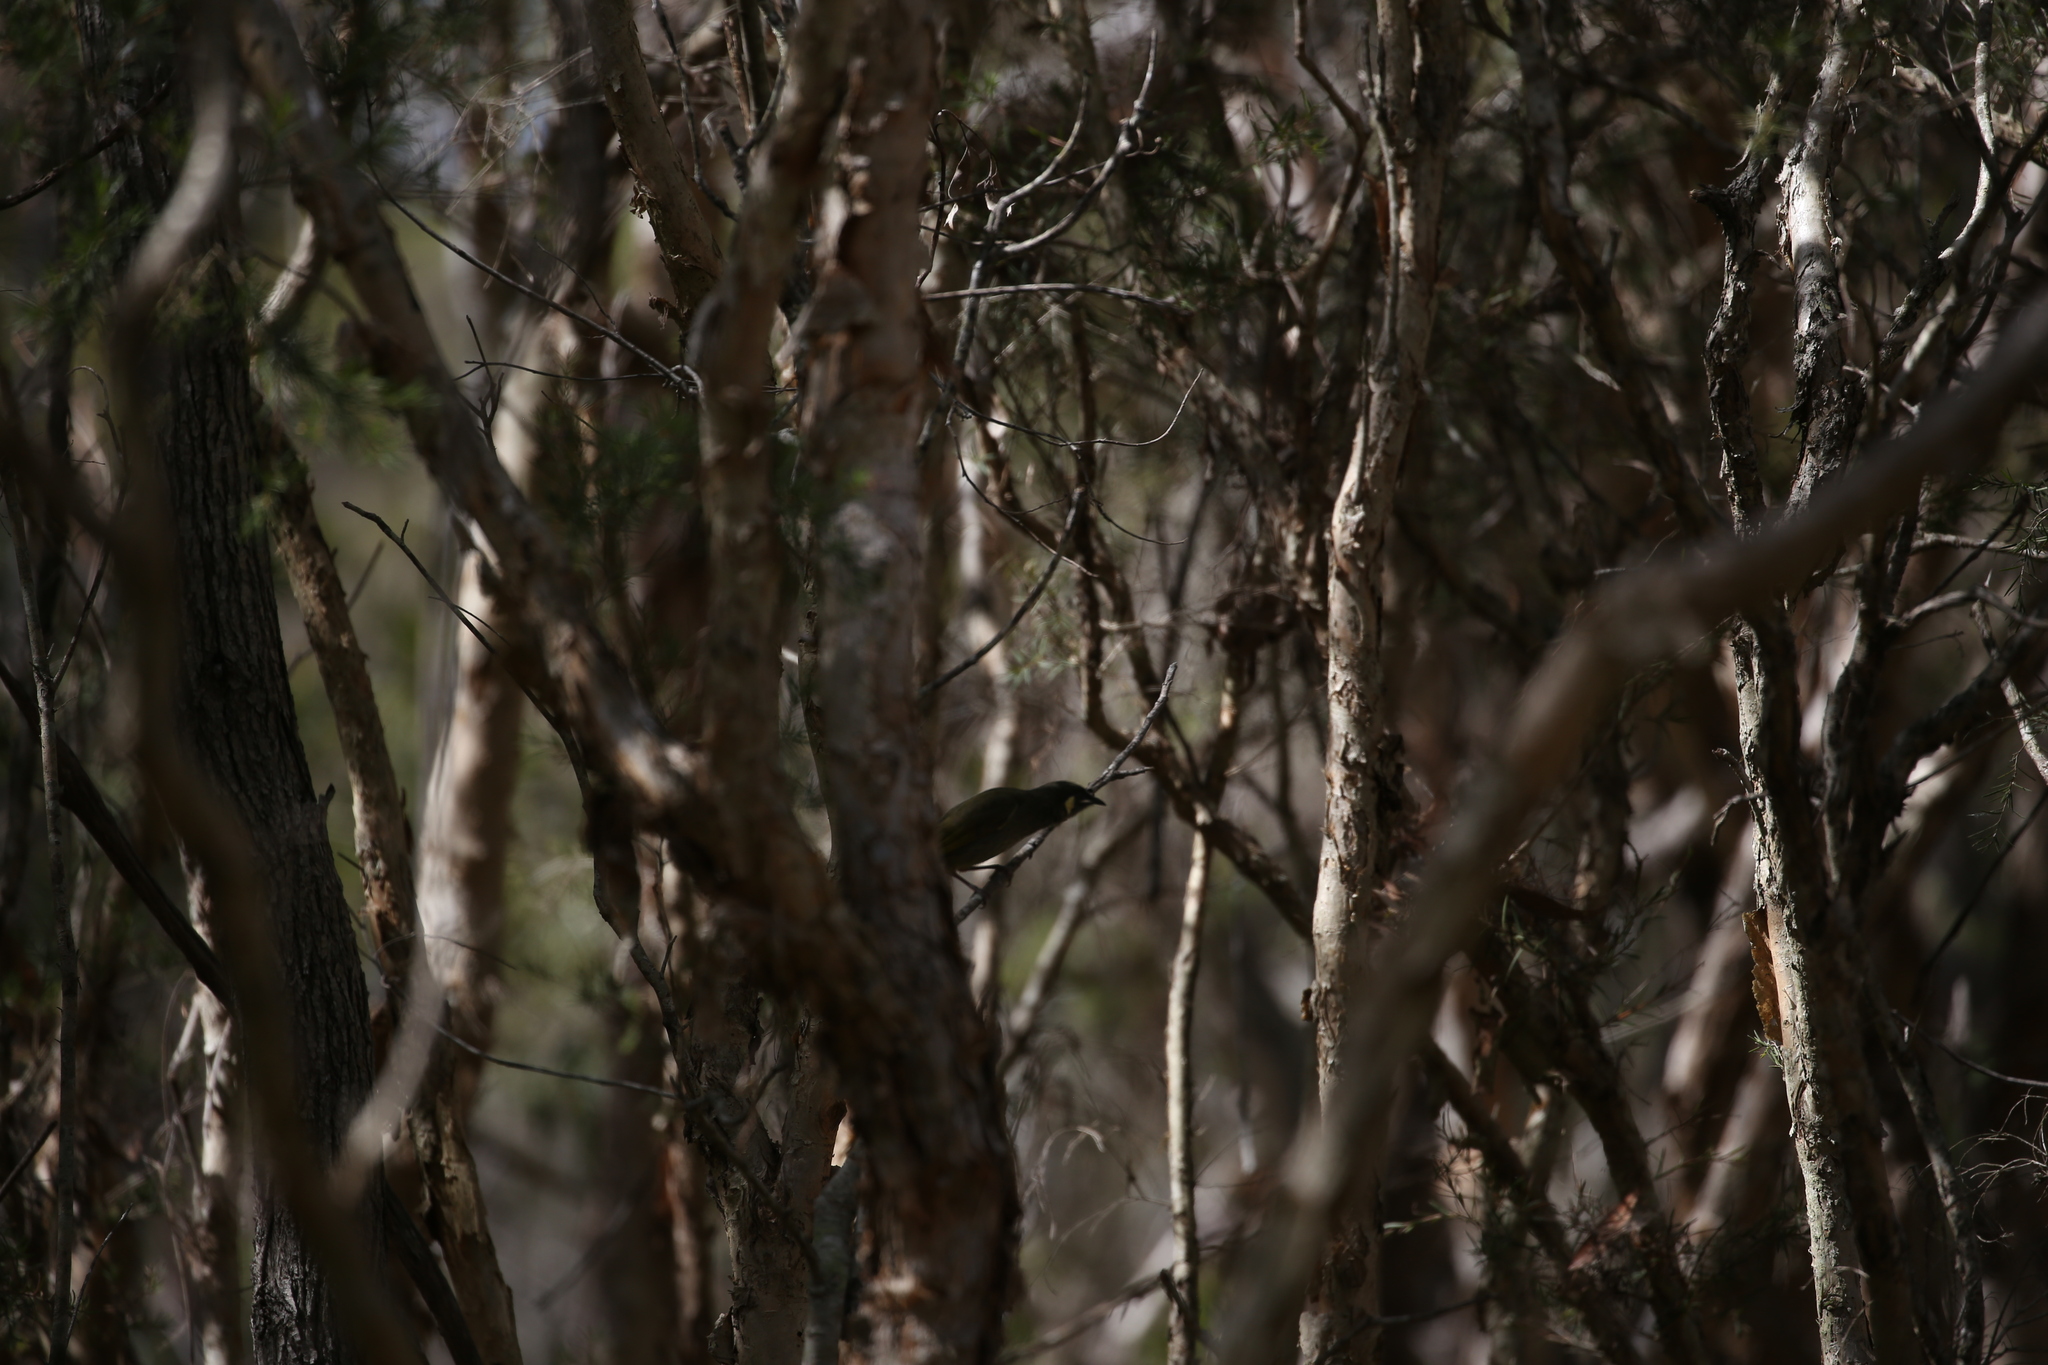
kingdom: Animalia
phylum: Chordata
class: Aves
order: Passeriformes
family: Meliphagidae
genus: Meliphaga
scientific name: Meliphaga lewinii
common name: Lewin's honeyeater
